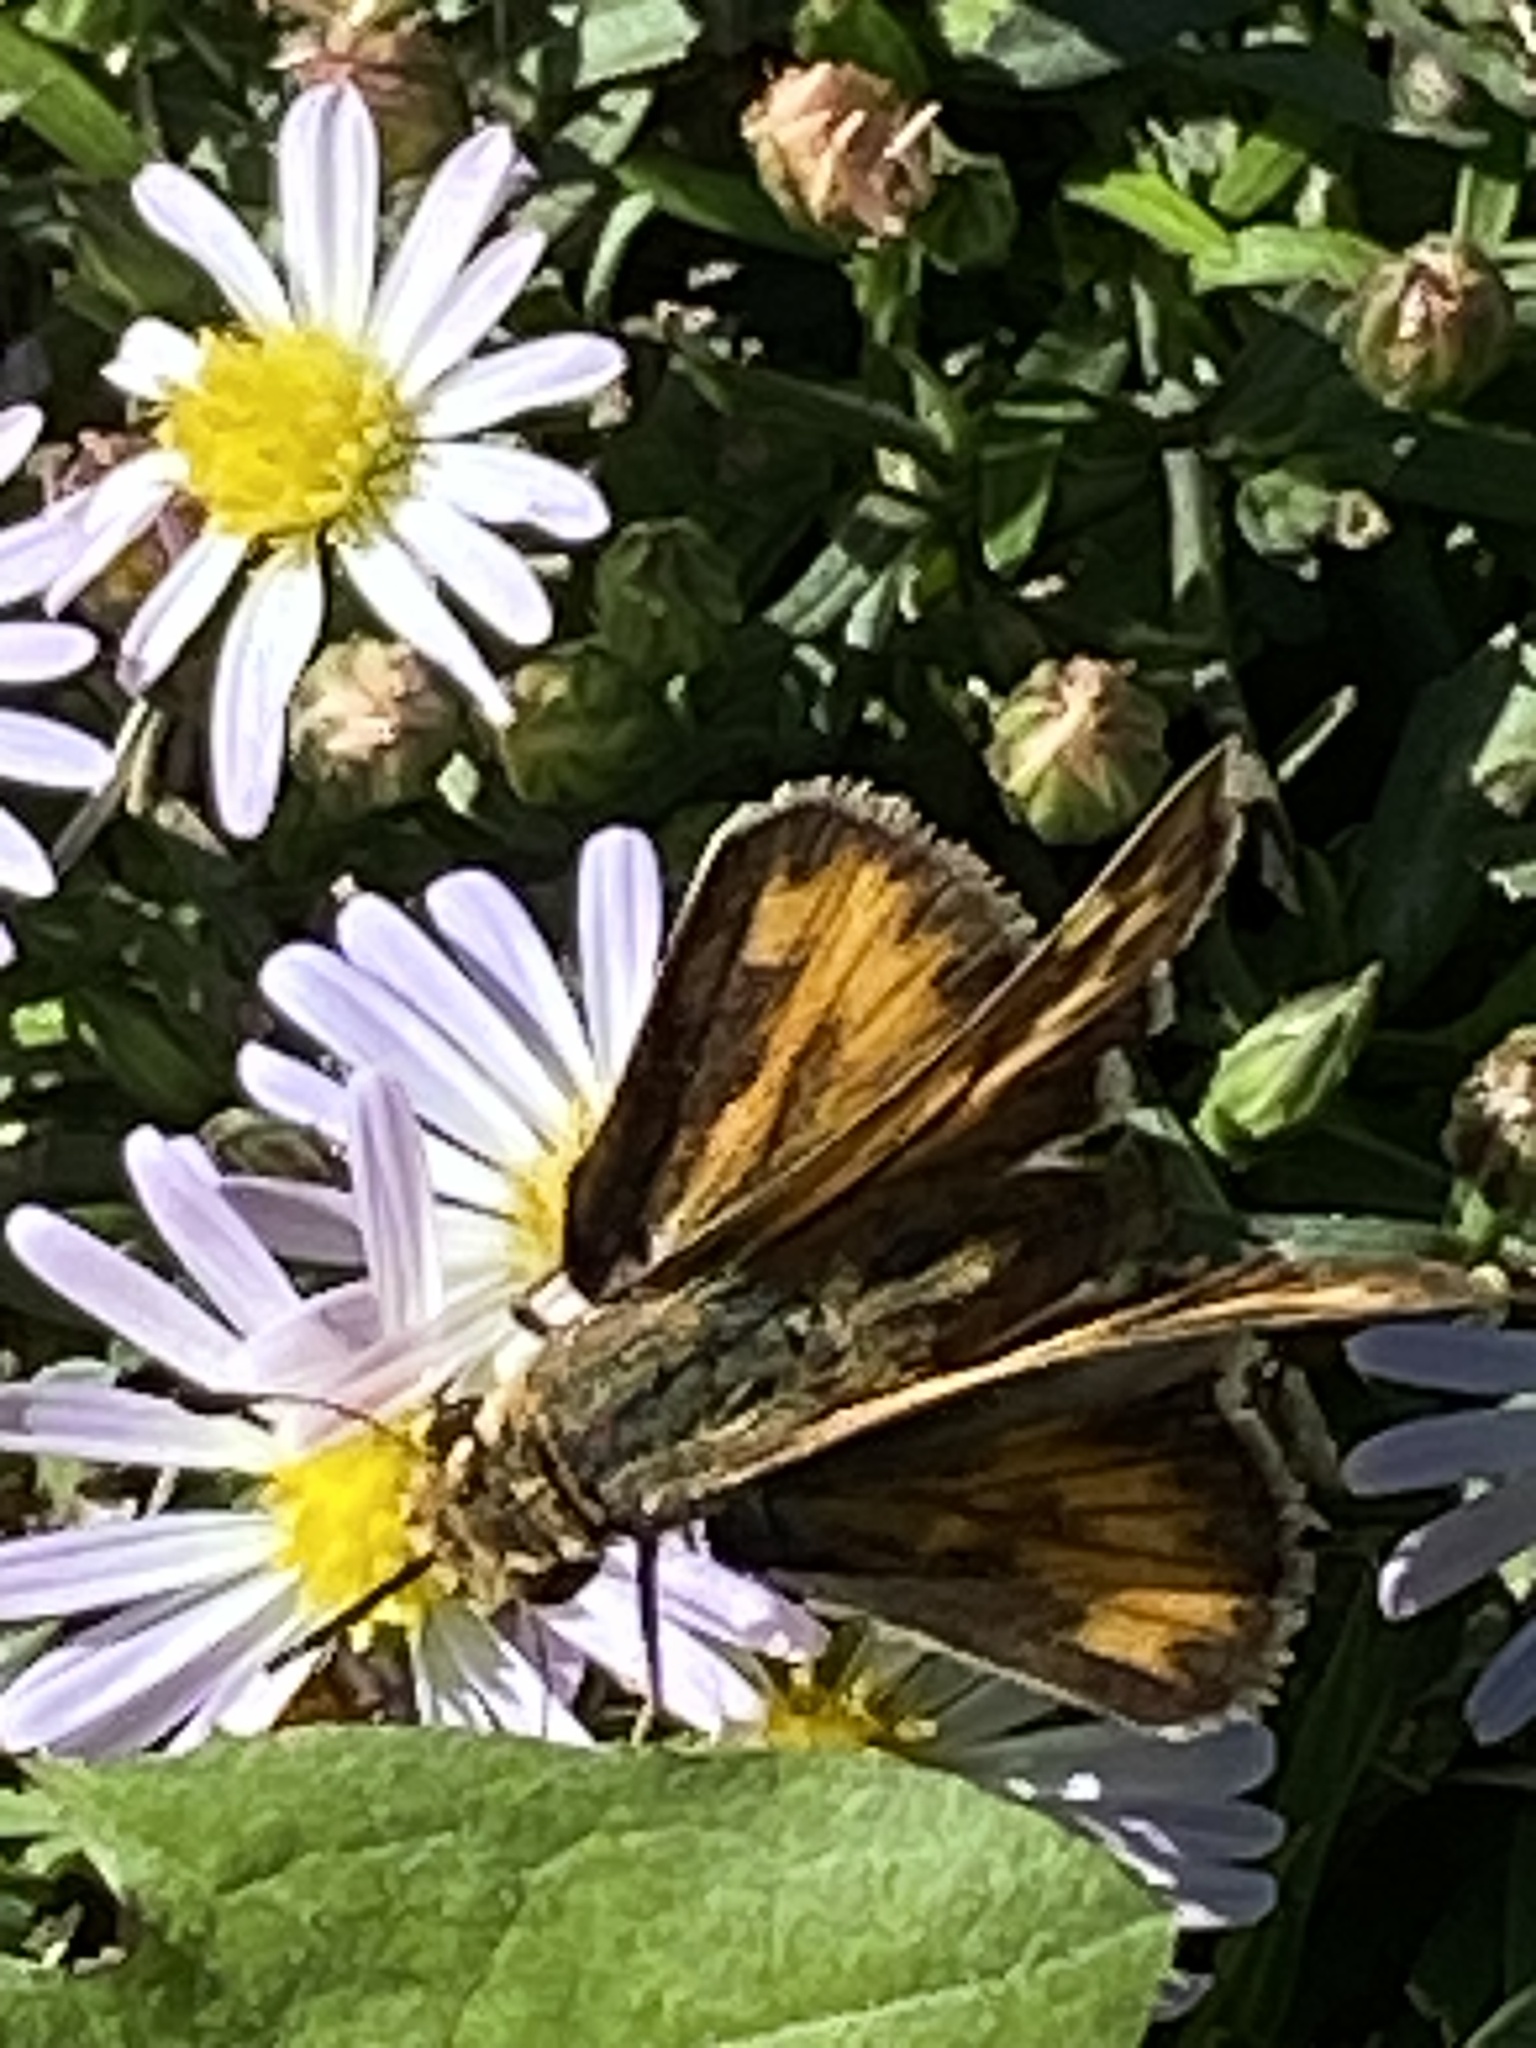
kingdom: Animalia
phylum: Arthropoda
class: Insecta
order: Lepidoptera
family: Hesperiidae
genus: Hylephila
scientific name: Hylephila phyleus
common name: Fiery skipper
